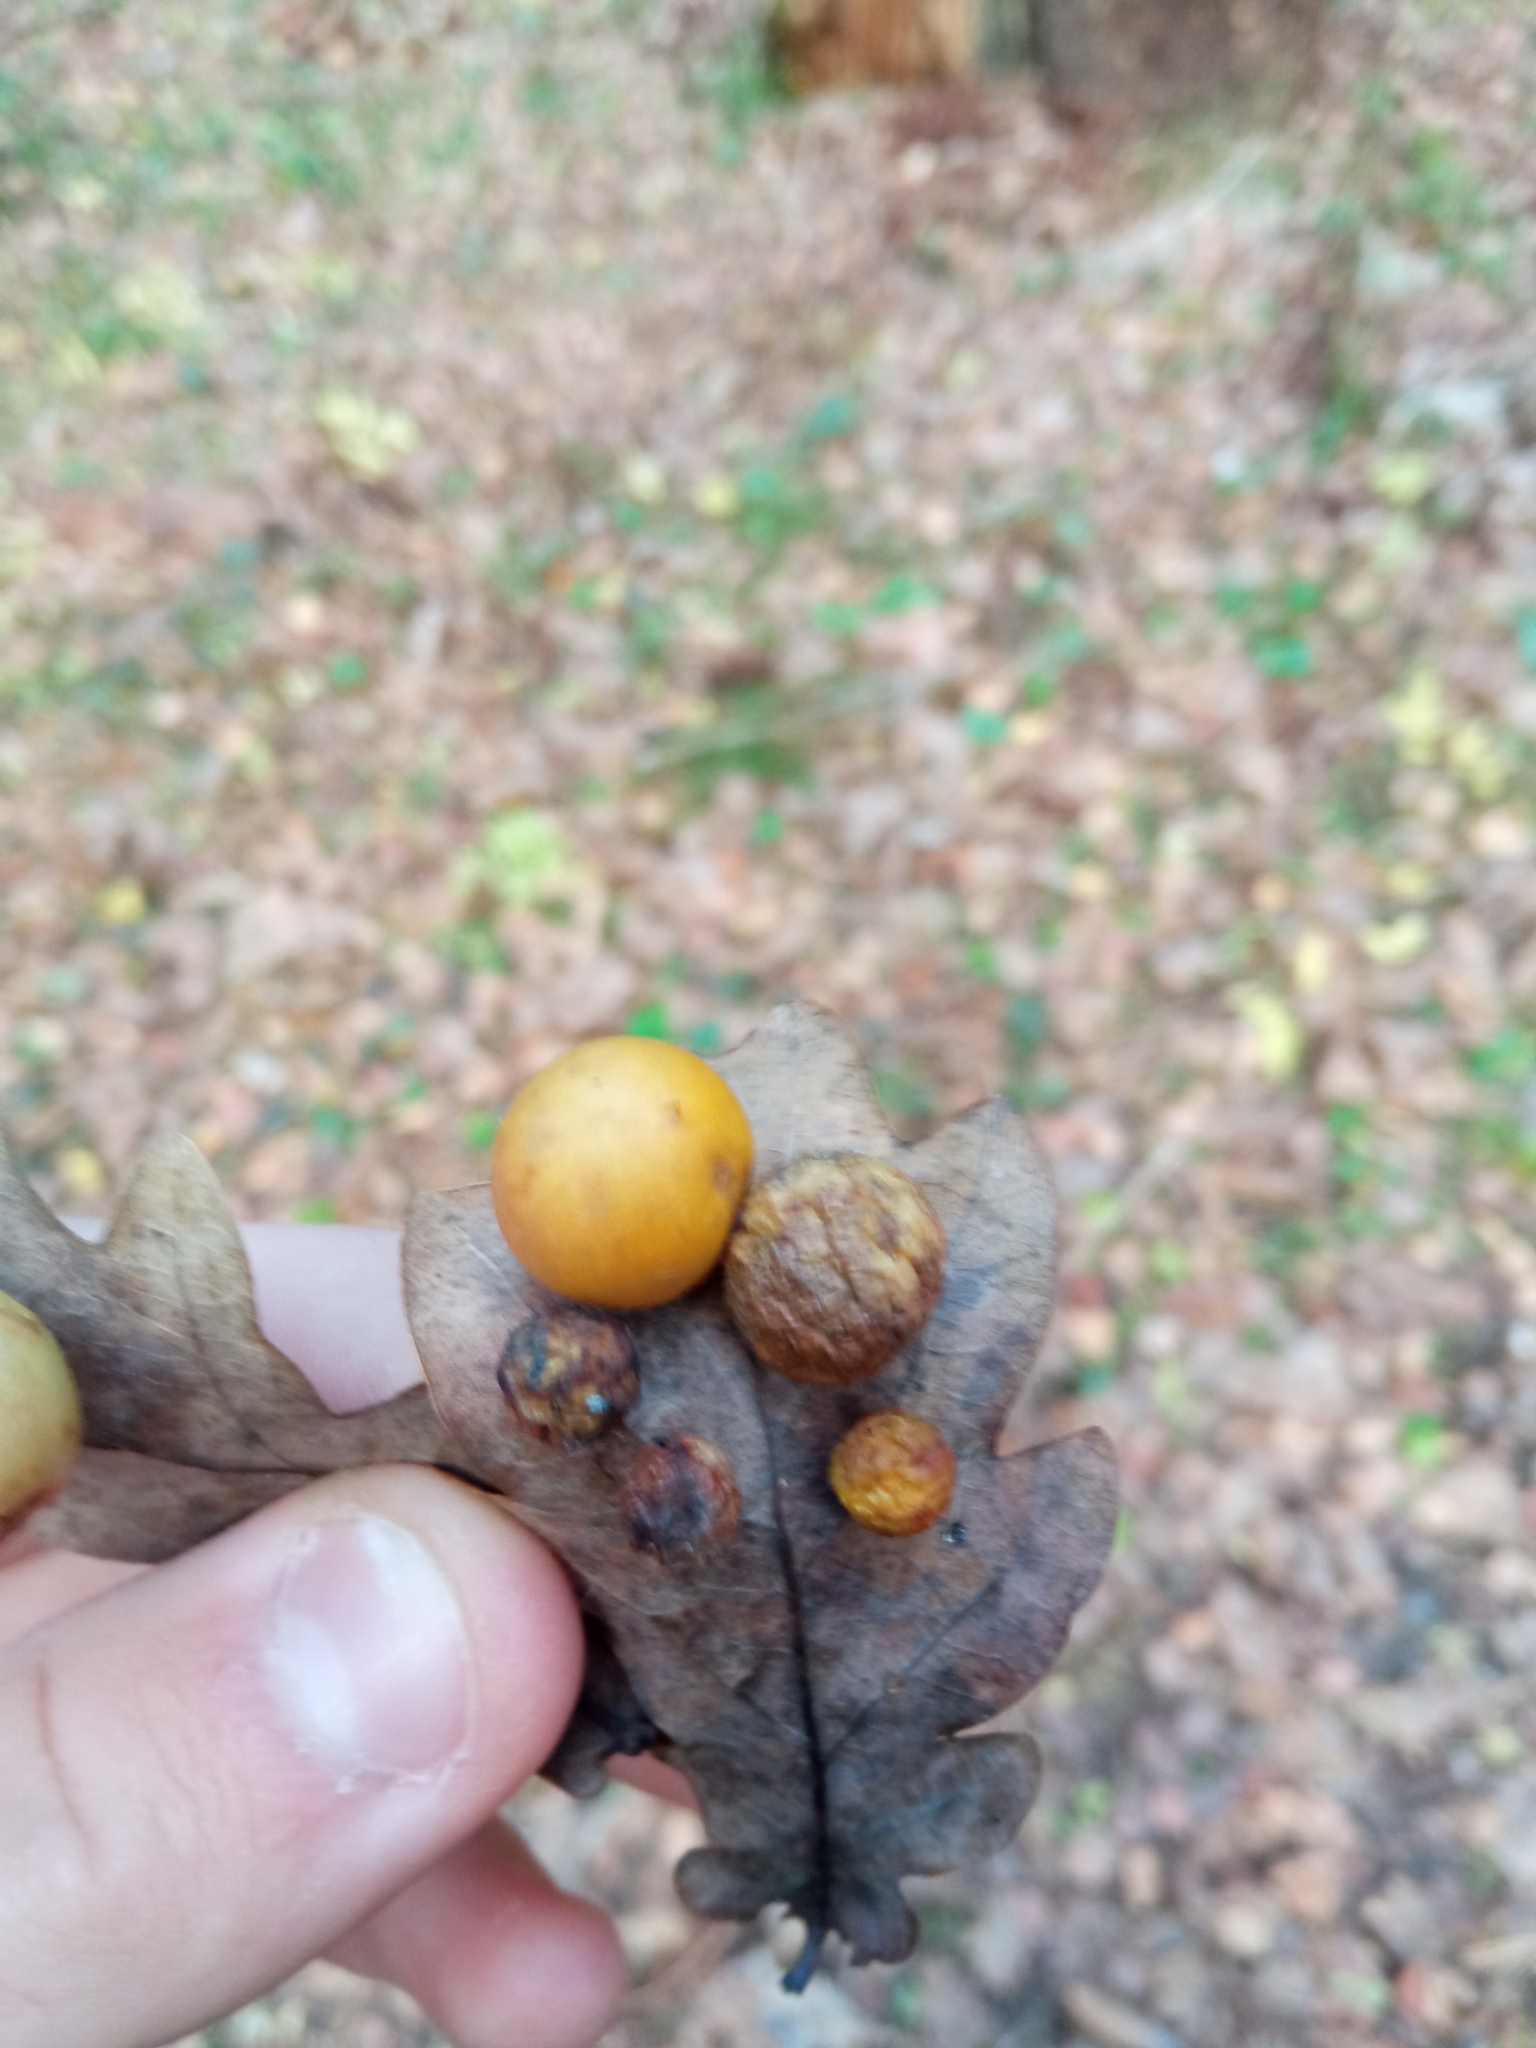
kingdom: Animalia
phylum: Arthropoda
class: Insecta
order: Hymenoptera
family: Cynipidae
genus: Cynips
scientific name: Cynips quercusfolii
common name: Cherry gall
